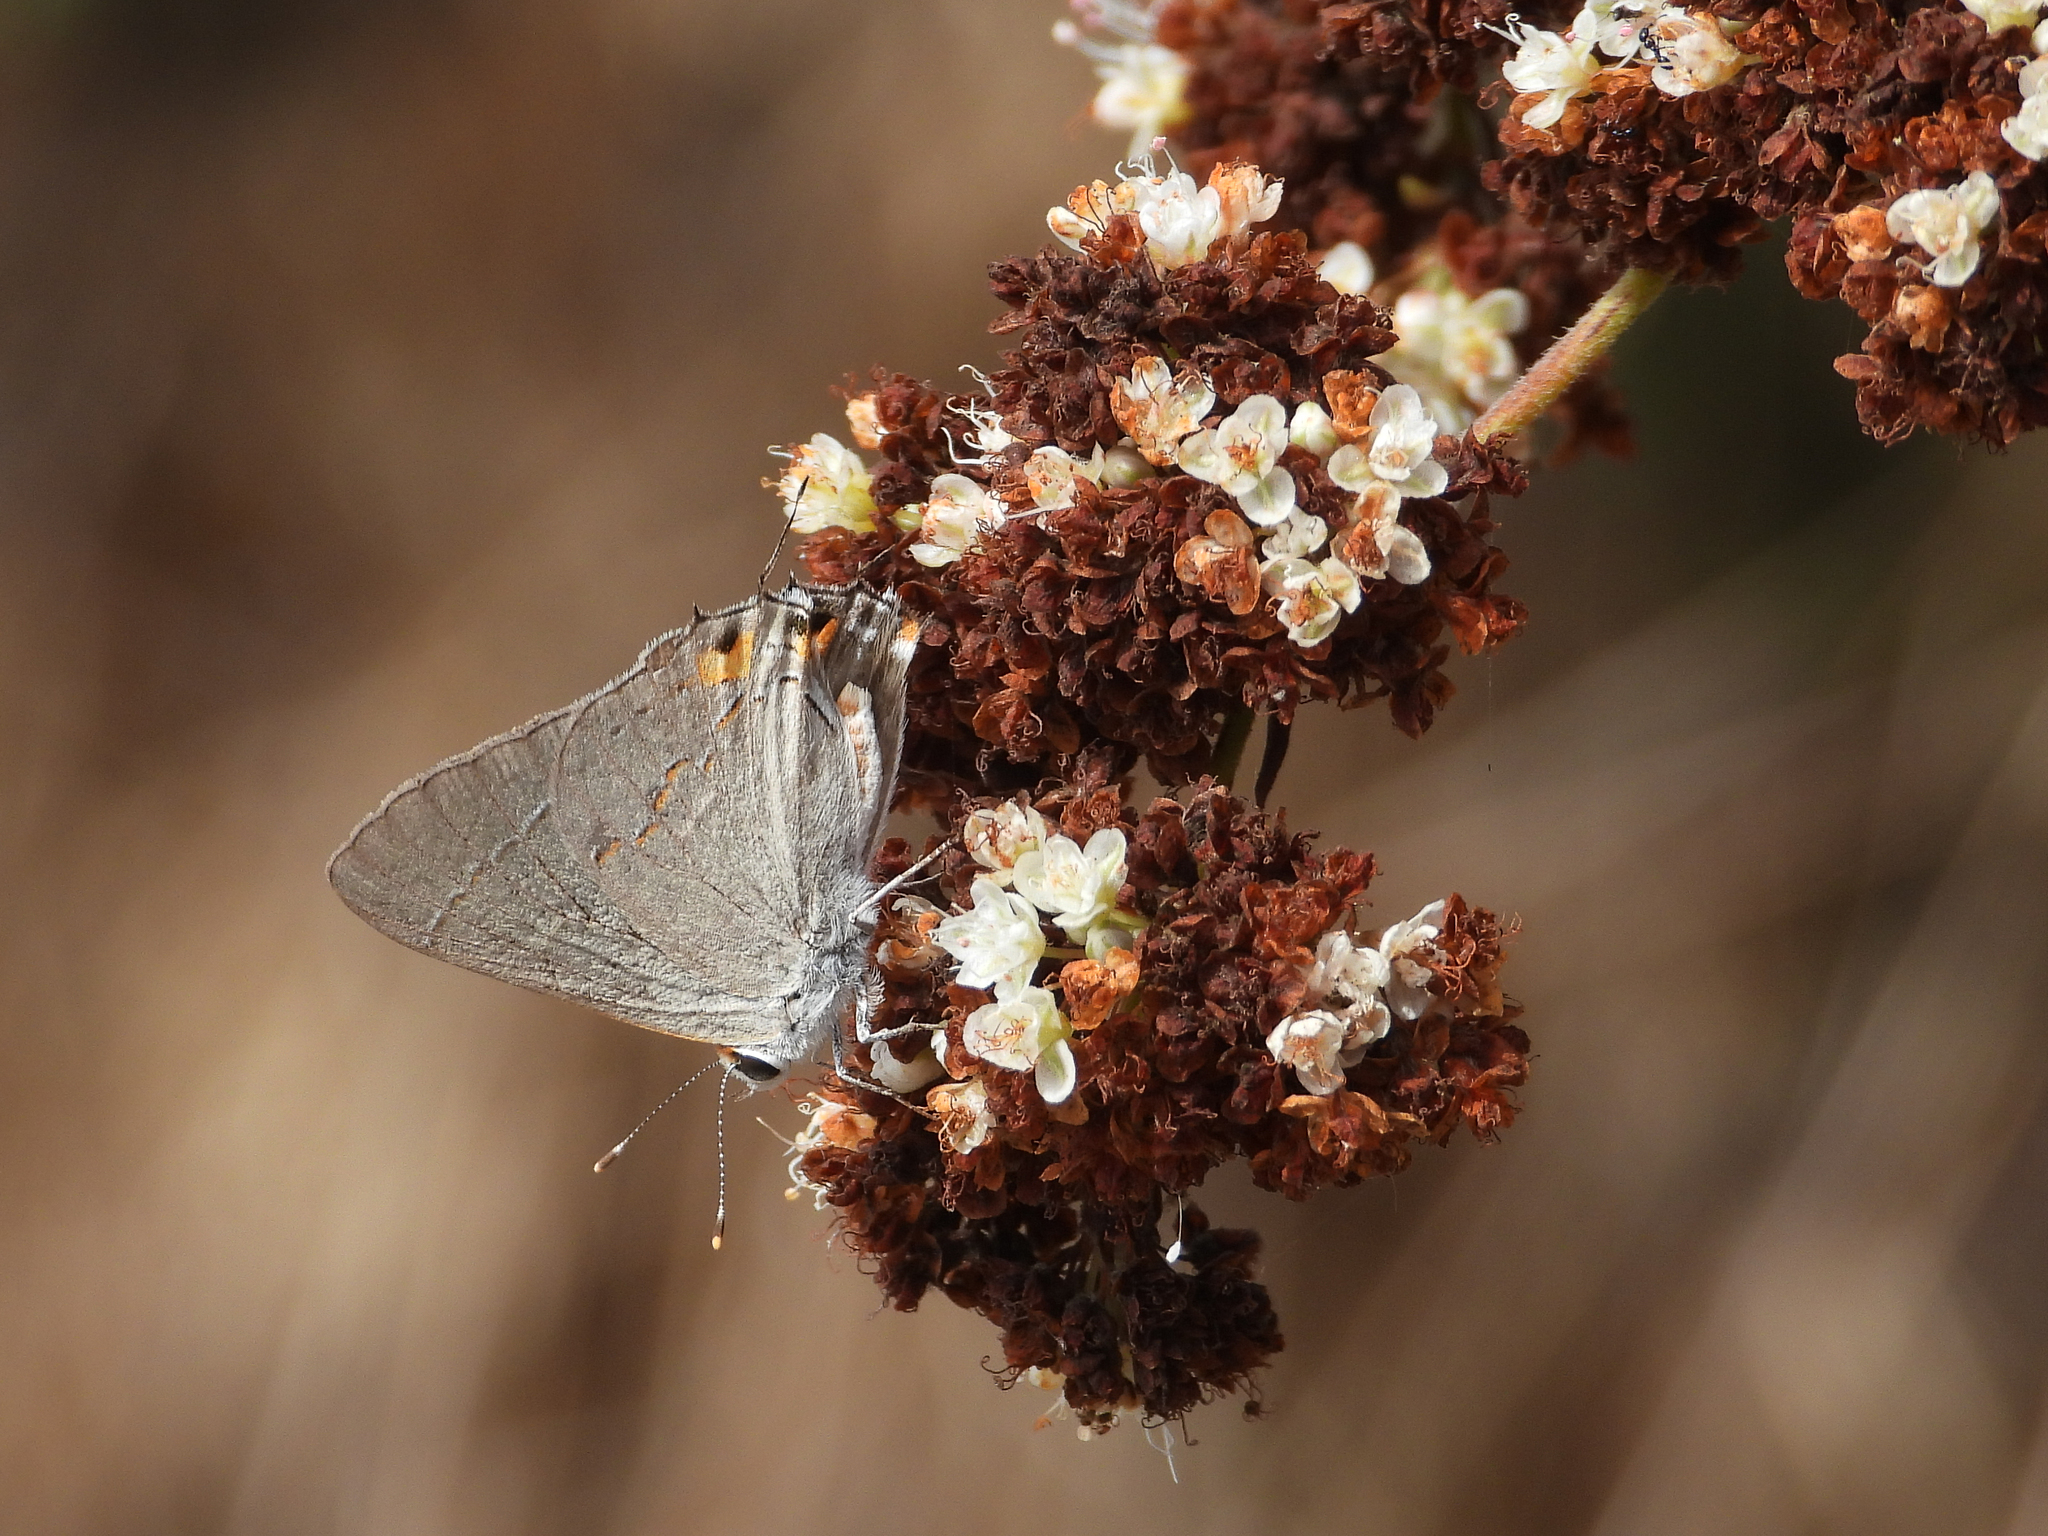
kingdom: Animalia
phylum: Arthropoda
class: Insecta
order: Lepidoptera
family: Lycaenidae
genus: Strymon
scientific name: Strymon melinus
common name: Gray hairstreak
